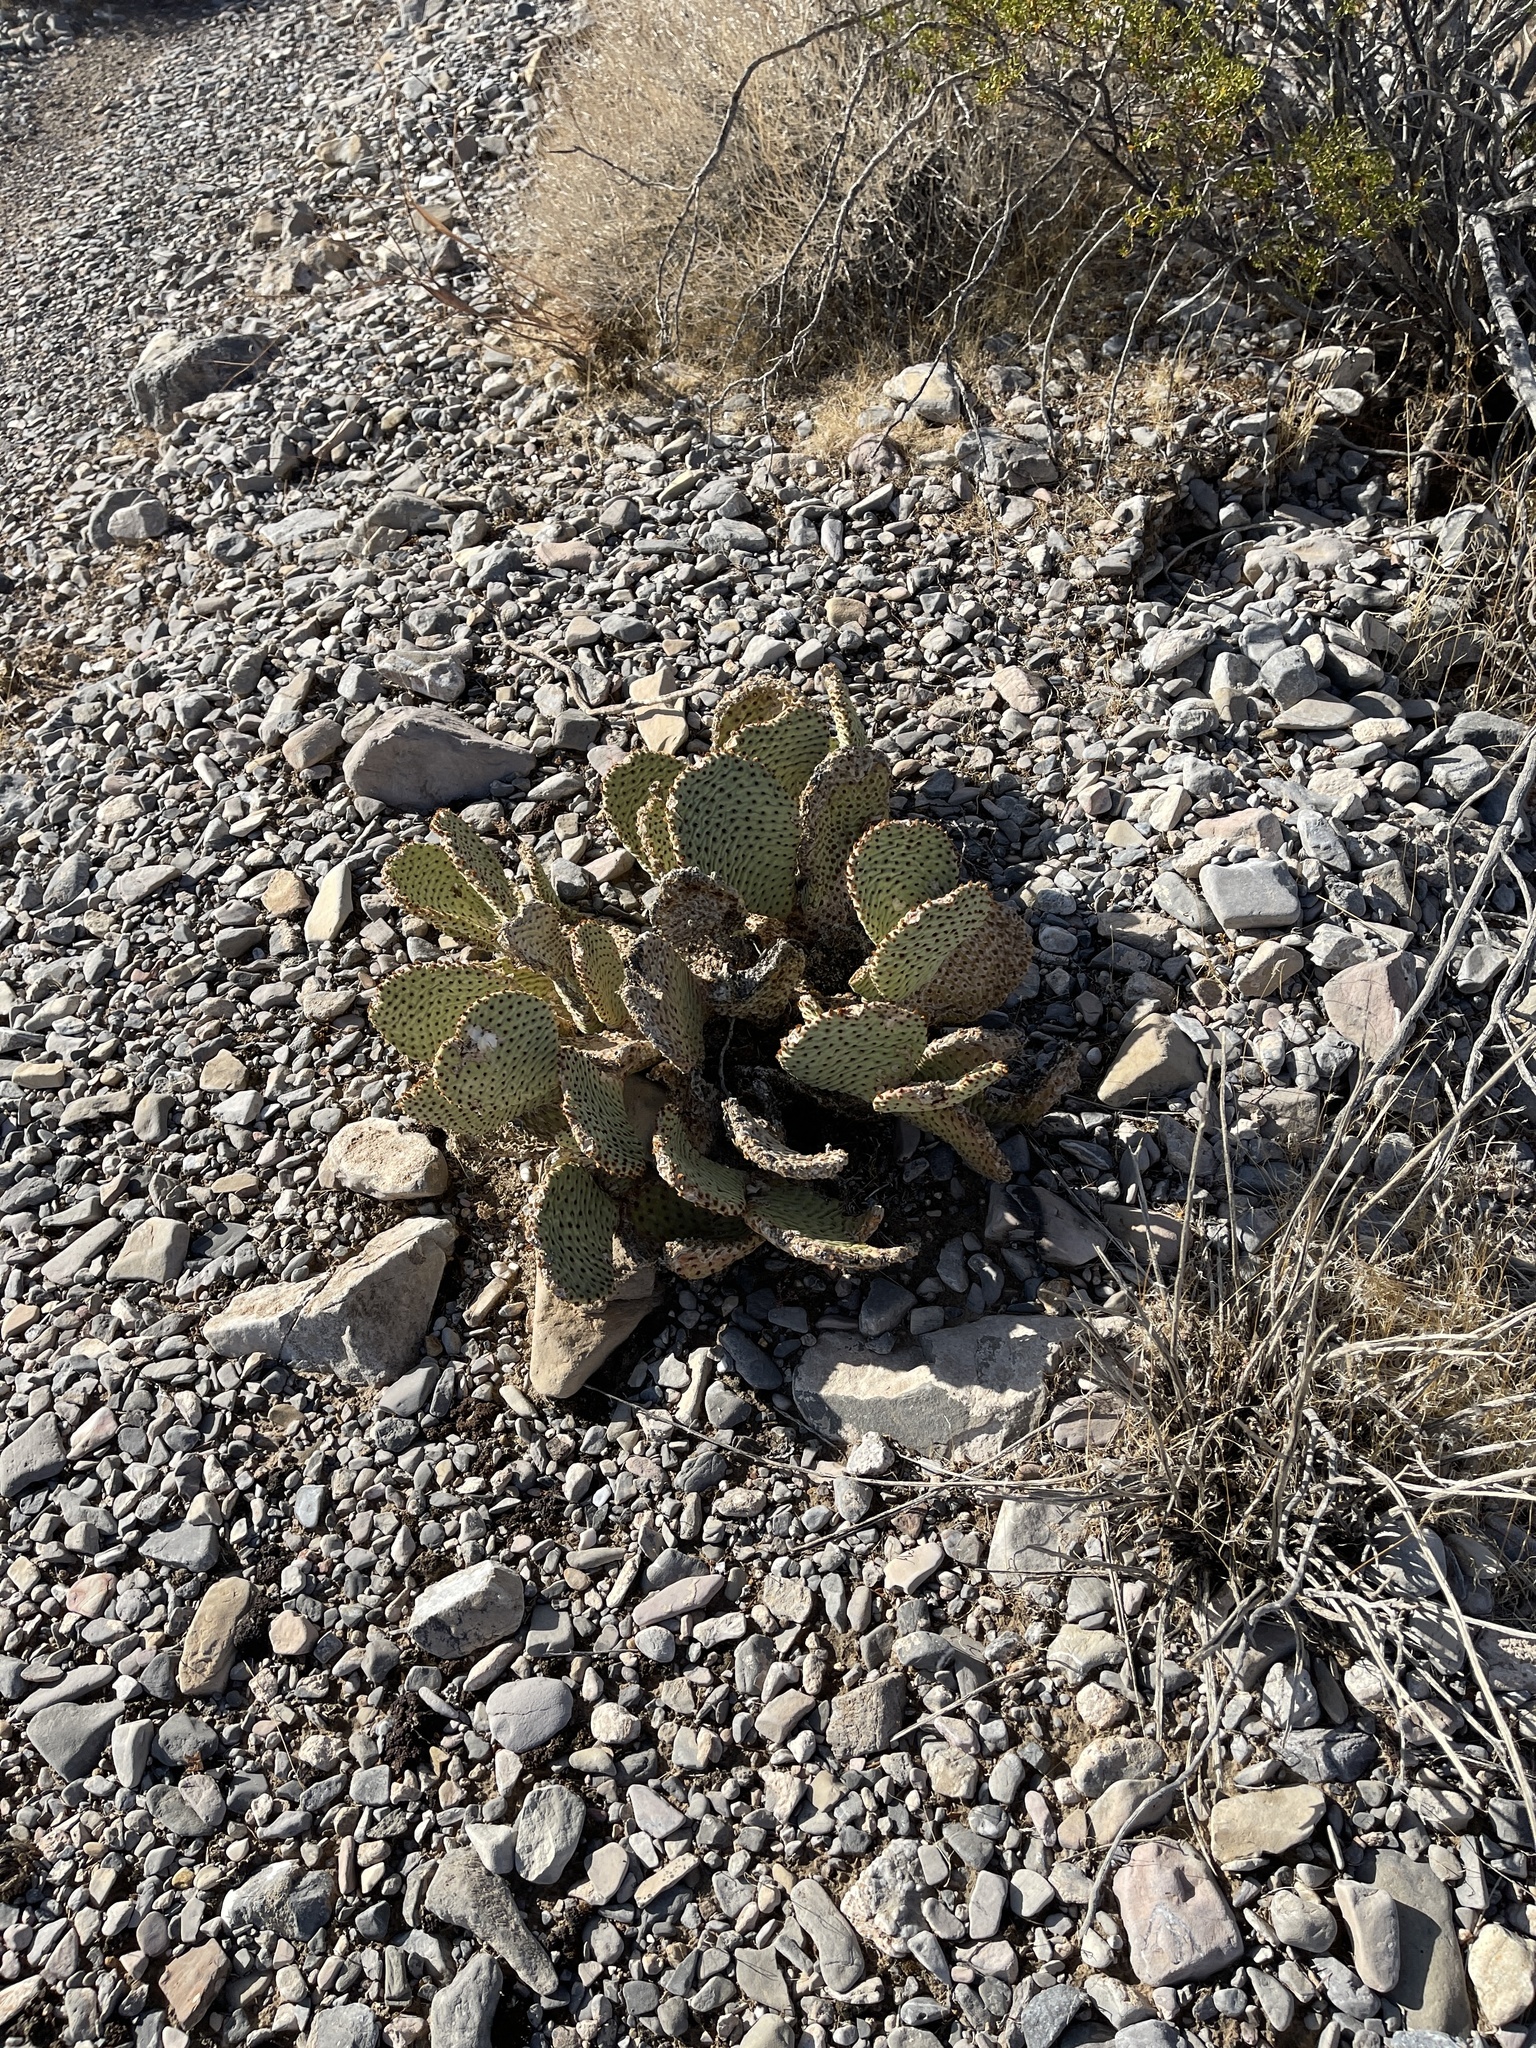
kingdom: Plantae
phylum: Tracheophyta
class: Magnoliopsida
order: Caryophyllales
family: Cactaceae
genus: Opuntia
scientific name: Opuntia basilaris
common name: Beavertail prickly-pear
